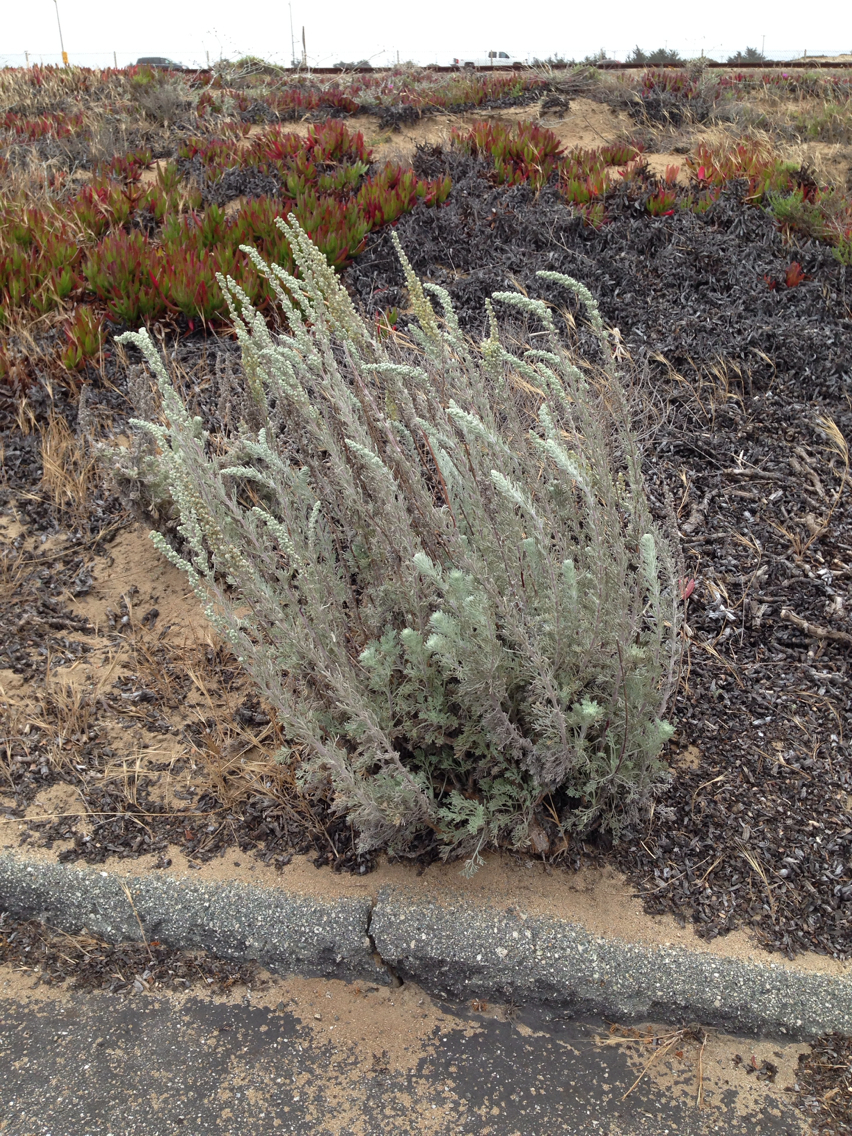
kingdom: Plantae
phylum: Tracheophyta
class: Magnoliopsida
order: Asterales
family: Asteraceae
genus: Artemisia
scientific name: Artemisia pycnocephala
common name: Coastal sagewort
